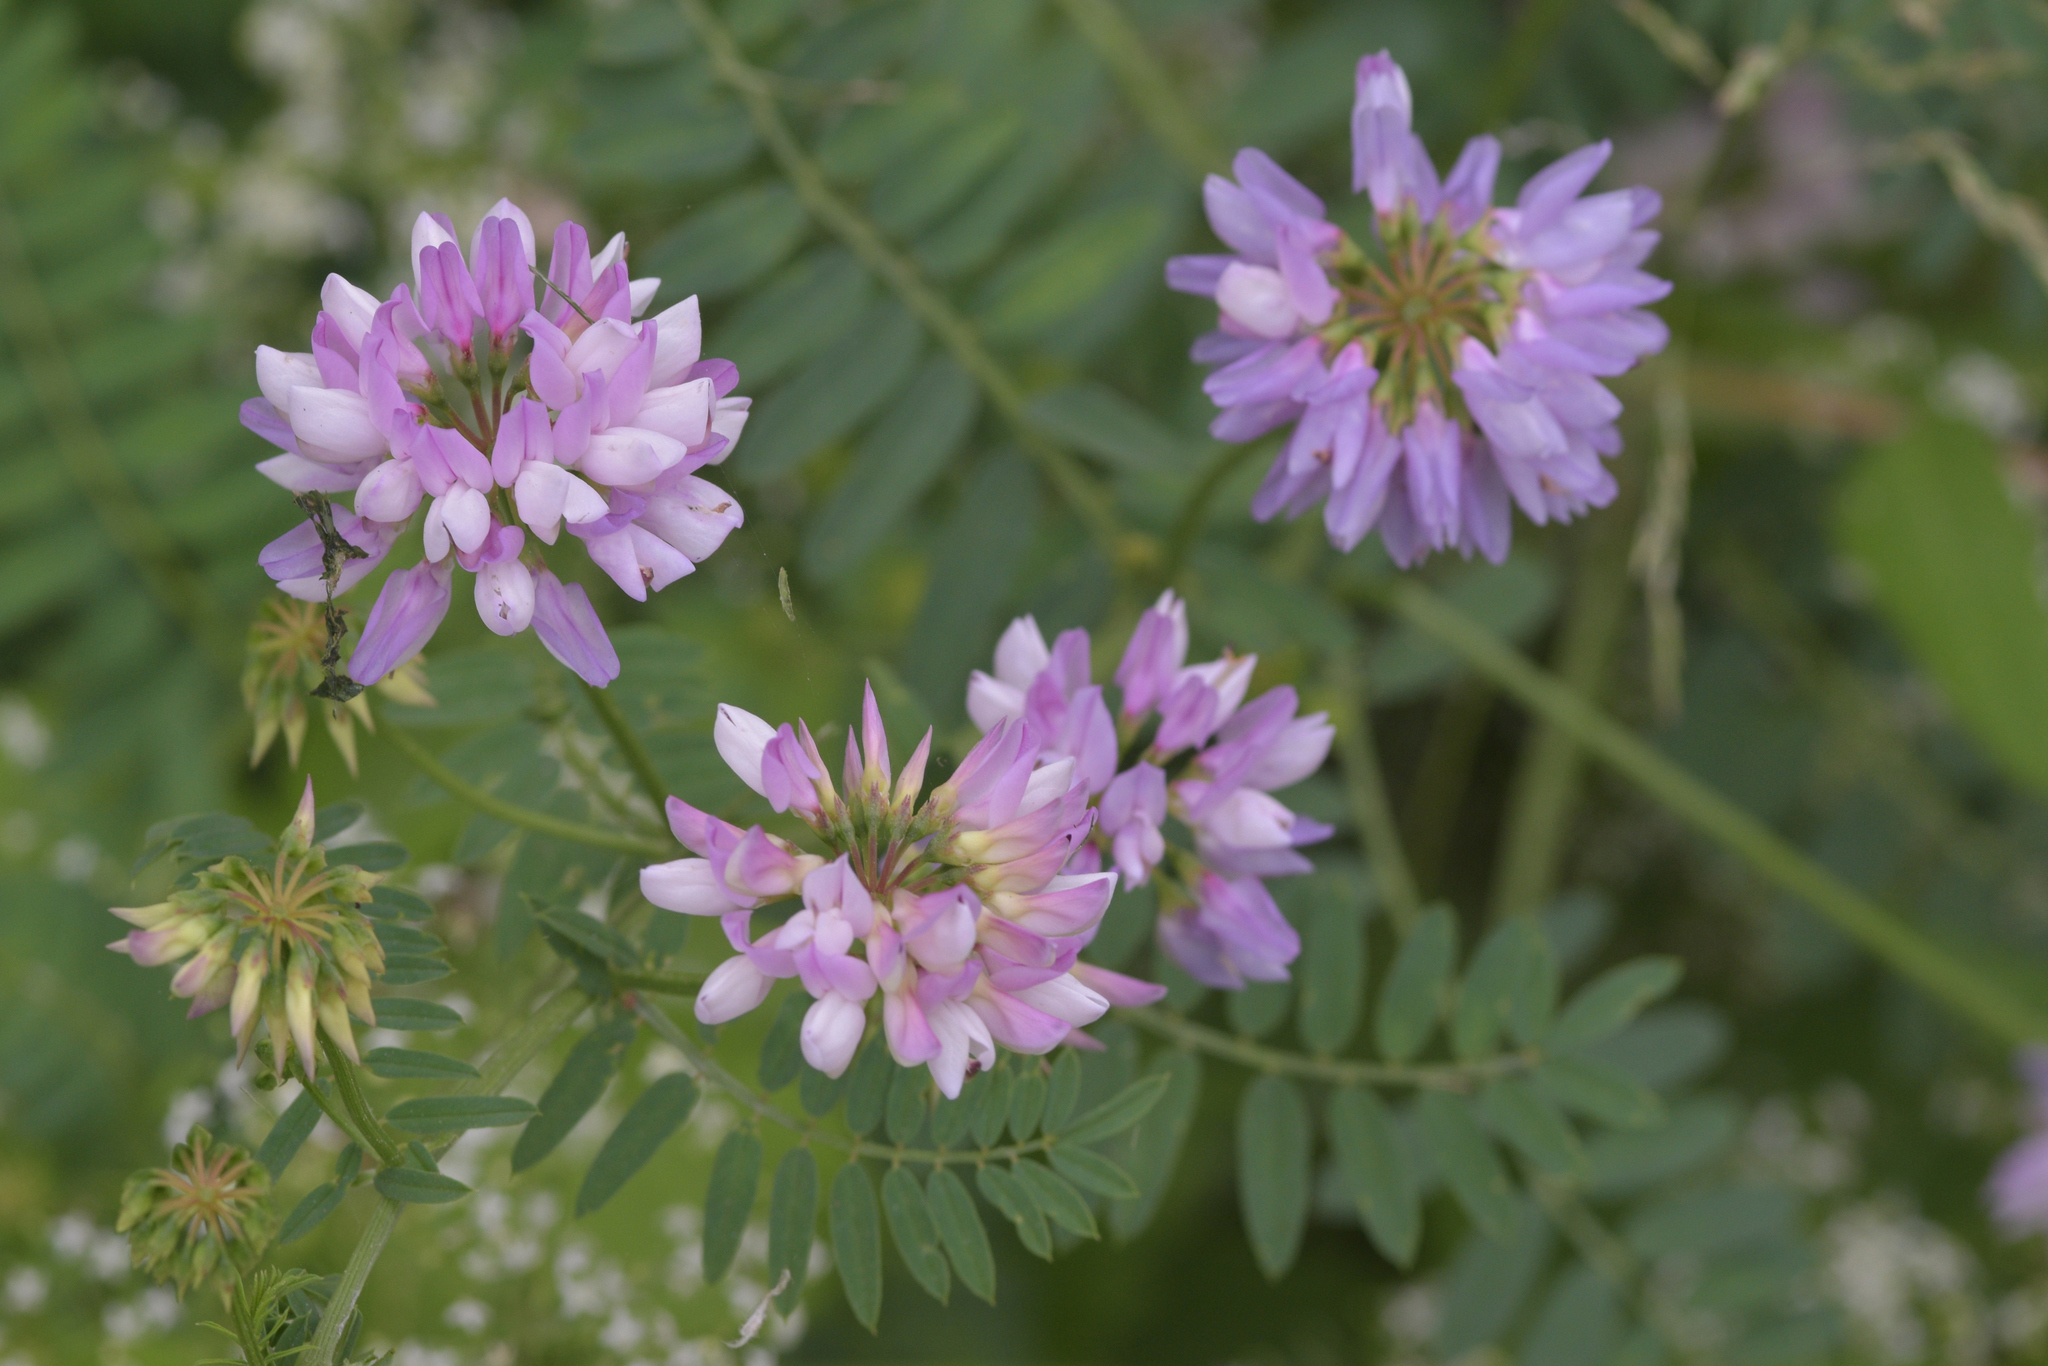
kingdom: Plantae
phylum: Tracheophyta
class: Magnoliopsida
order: Fabales
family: Fabaceae
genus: Coronilla
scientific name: Coronilla varia
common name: Crownvetch
